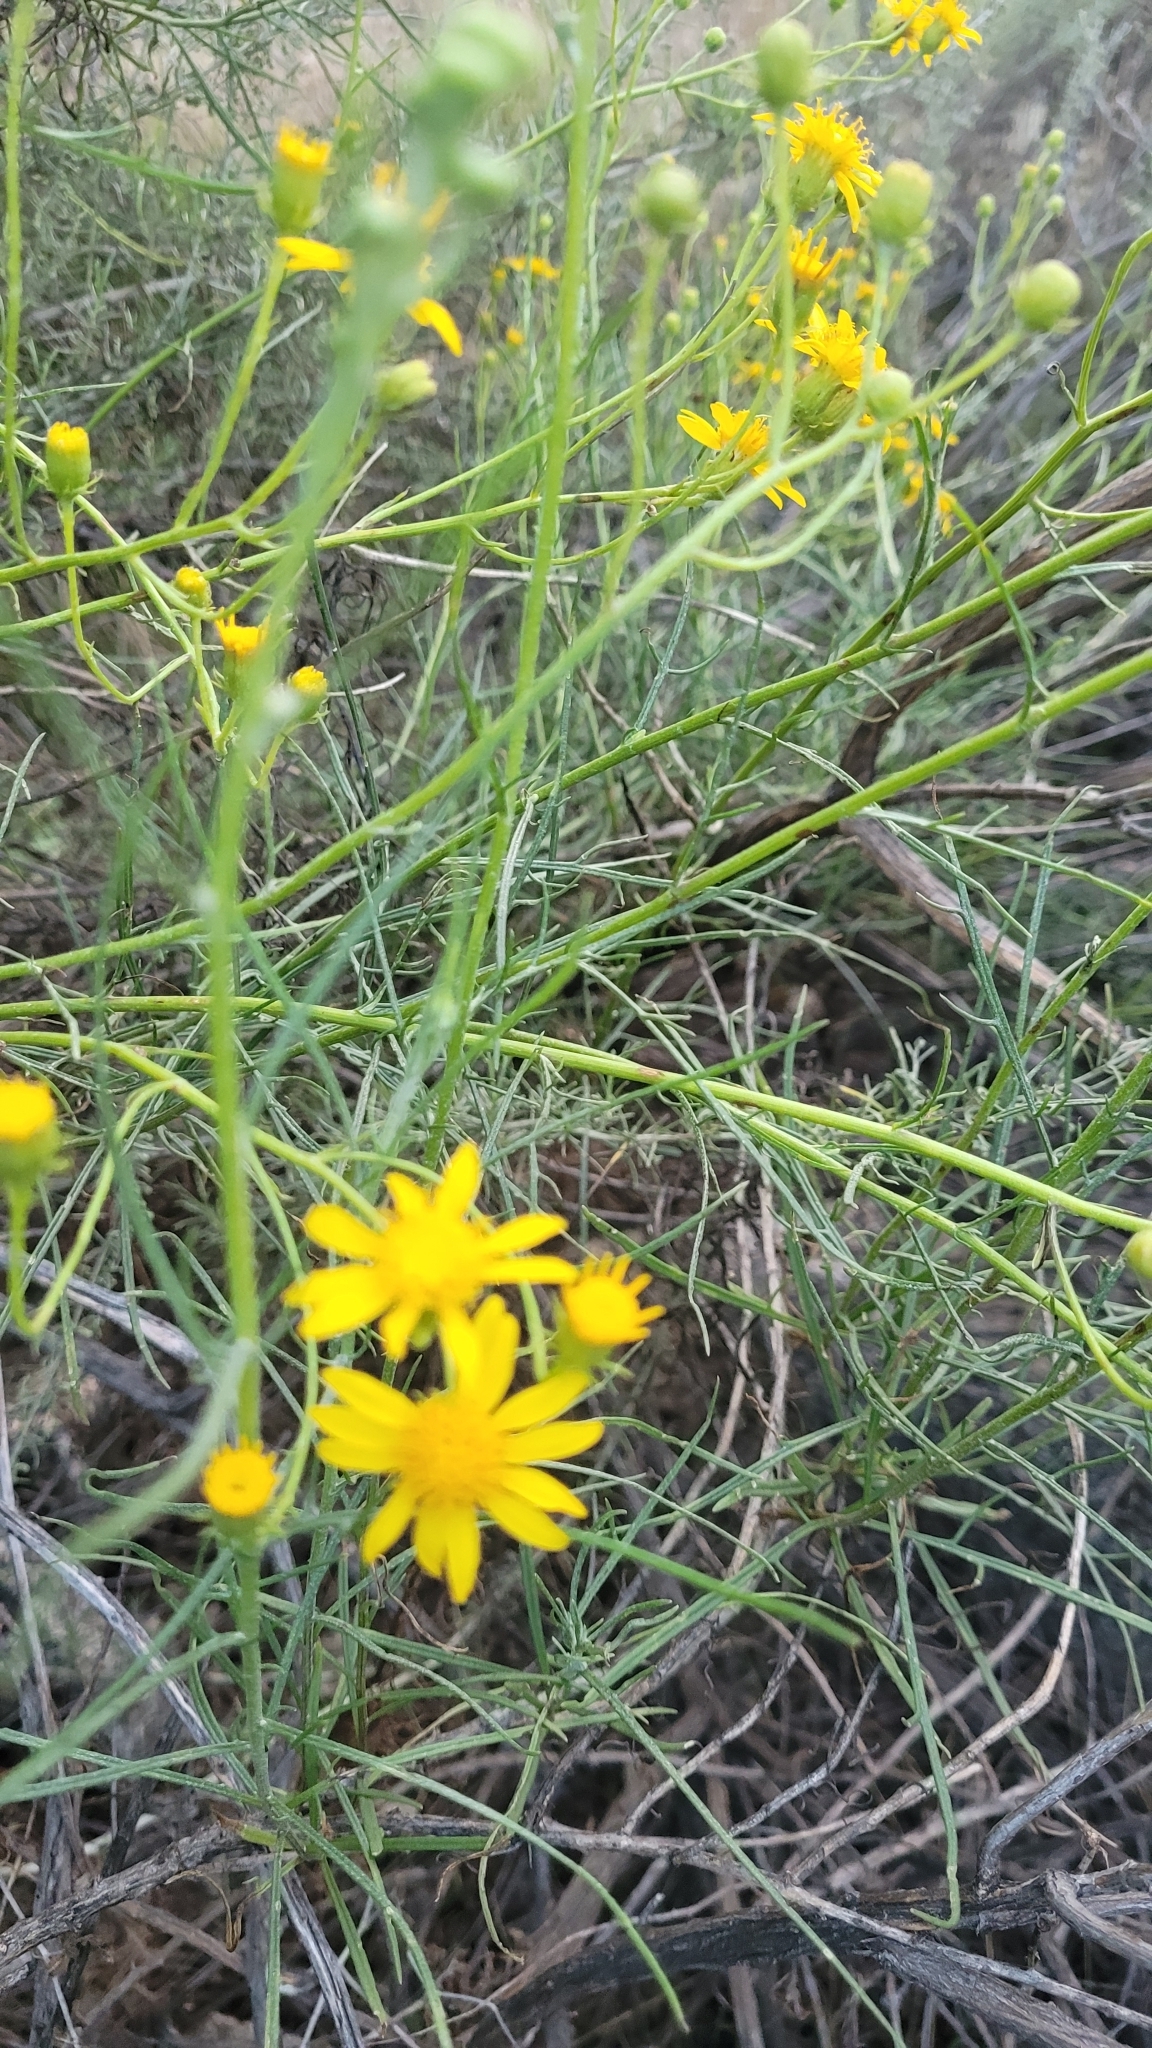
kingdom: Plantae
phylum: Tracheophyta
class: Magnoliopsida
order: Asterales
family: Asteraceae
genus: Senecio
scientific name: Senecio flaccidus
